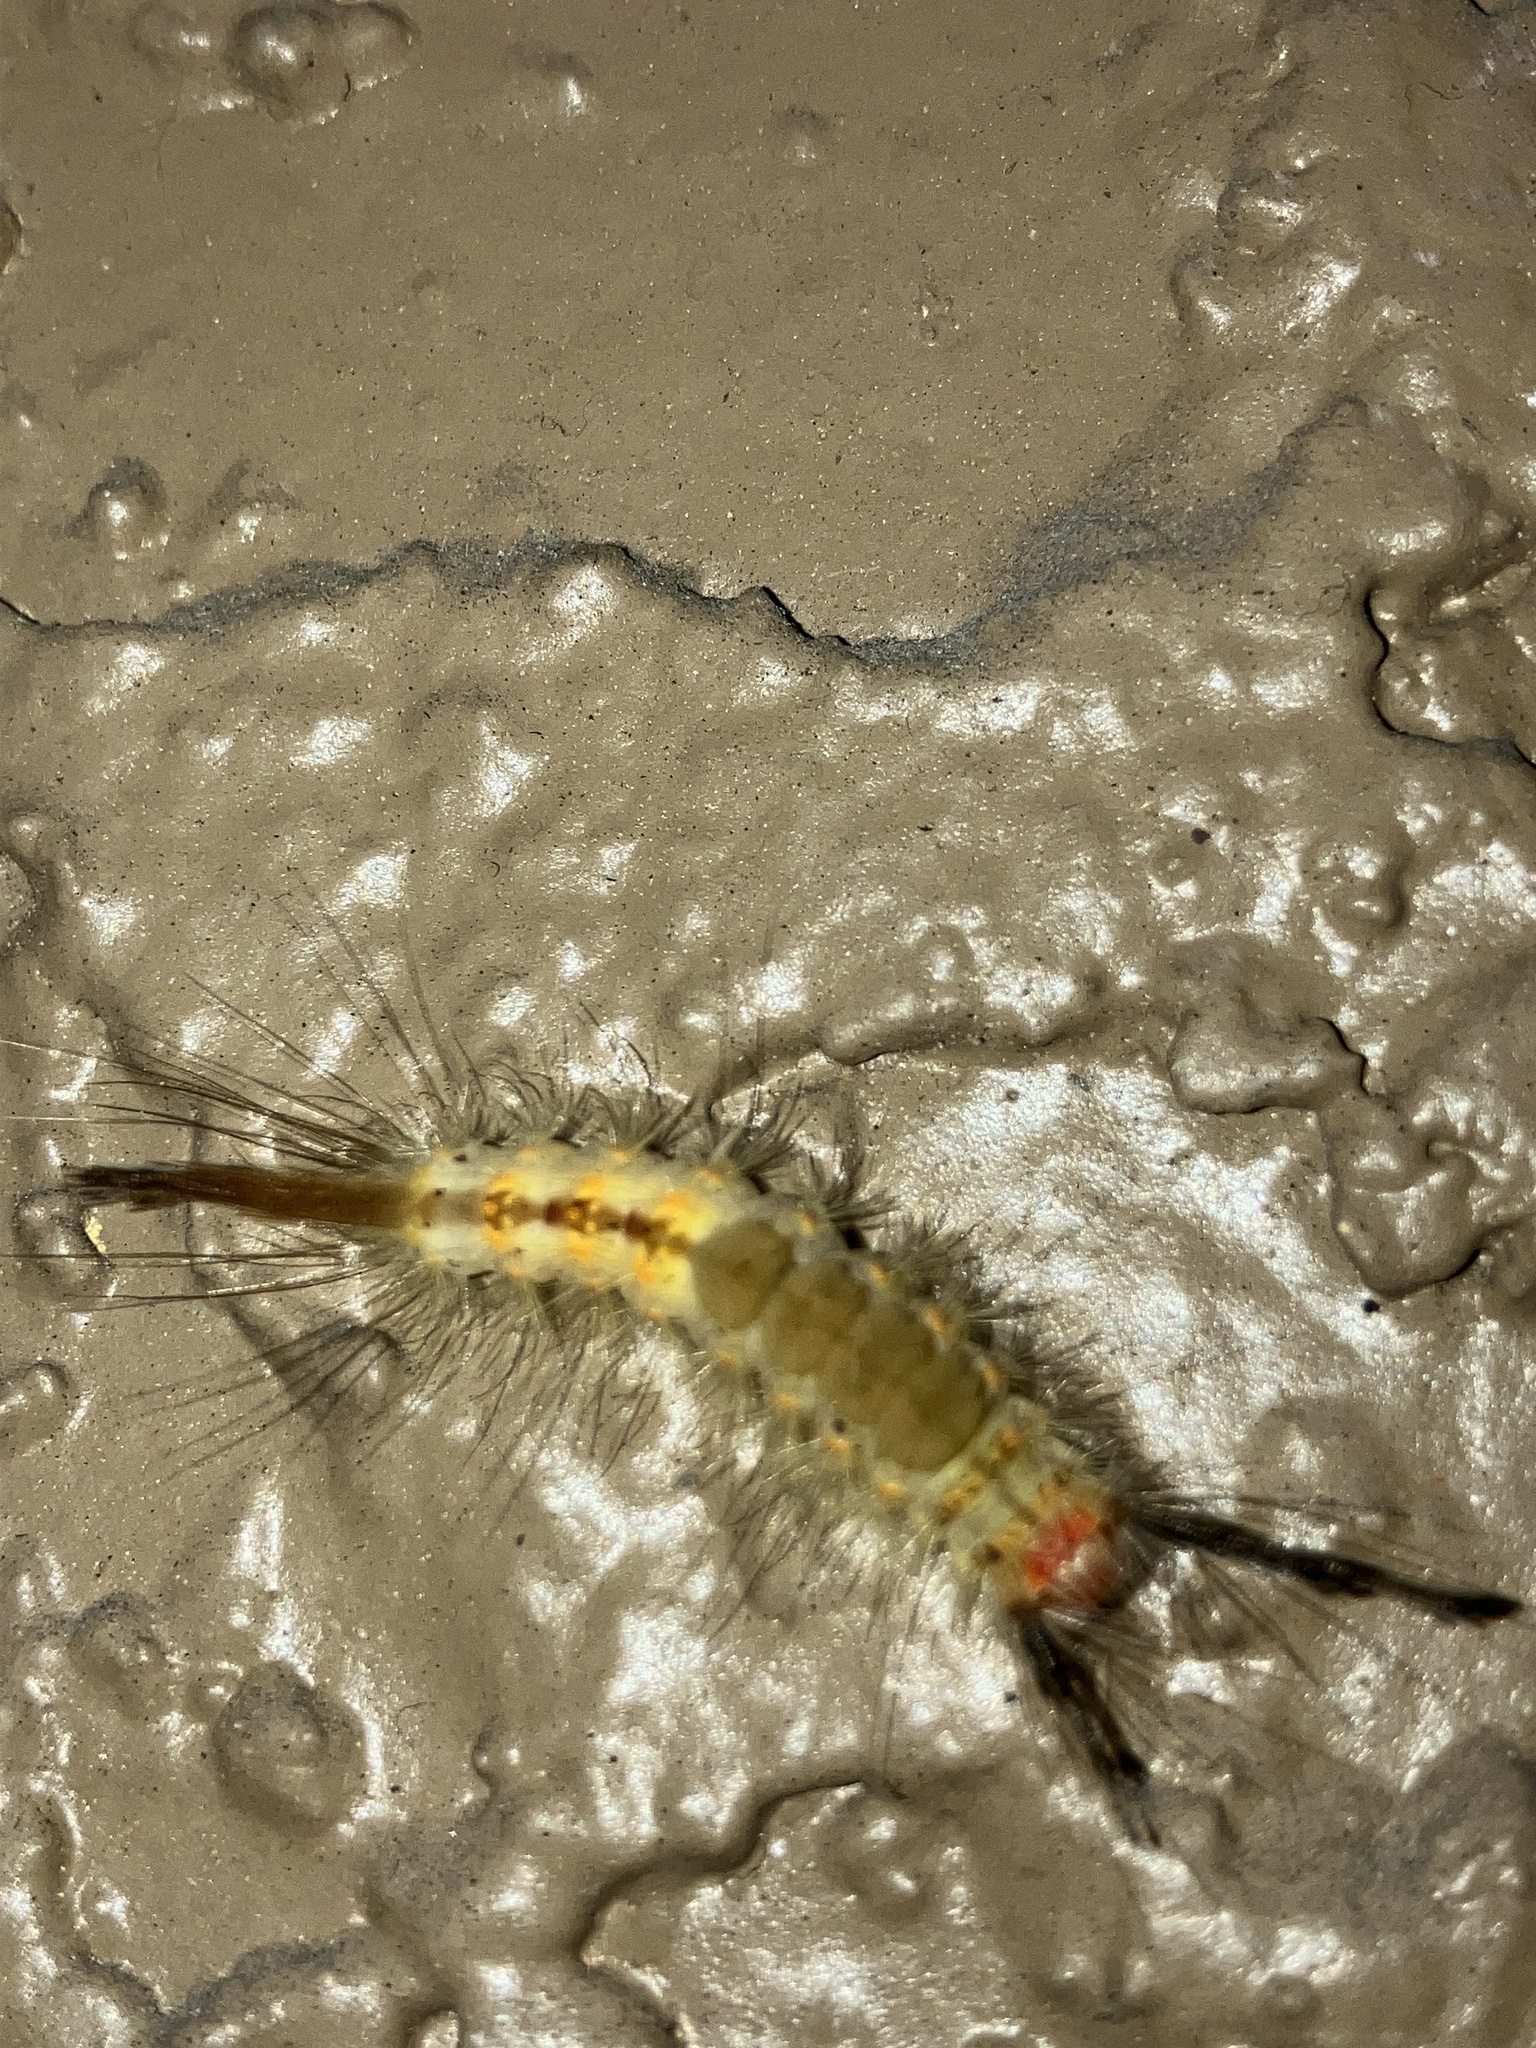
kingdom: Animalia
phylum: Arthropoda
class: Insecta
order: Lepidoptera
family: Erebidae
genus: Orgyia
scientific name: Orgyia detrita
